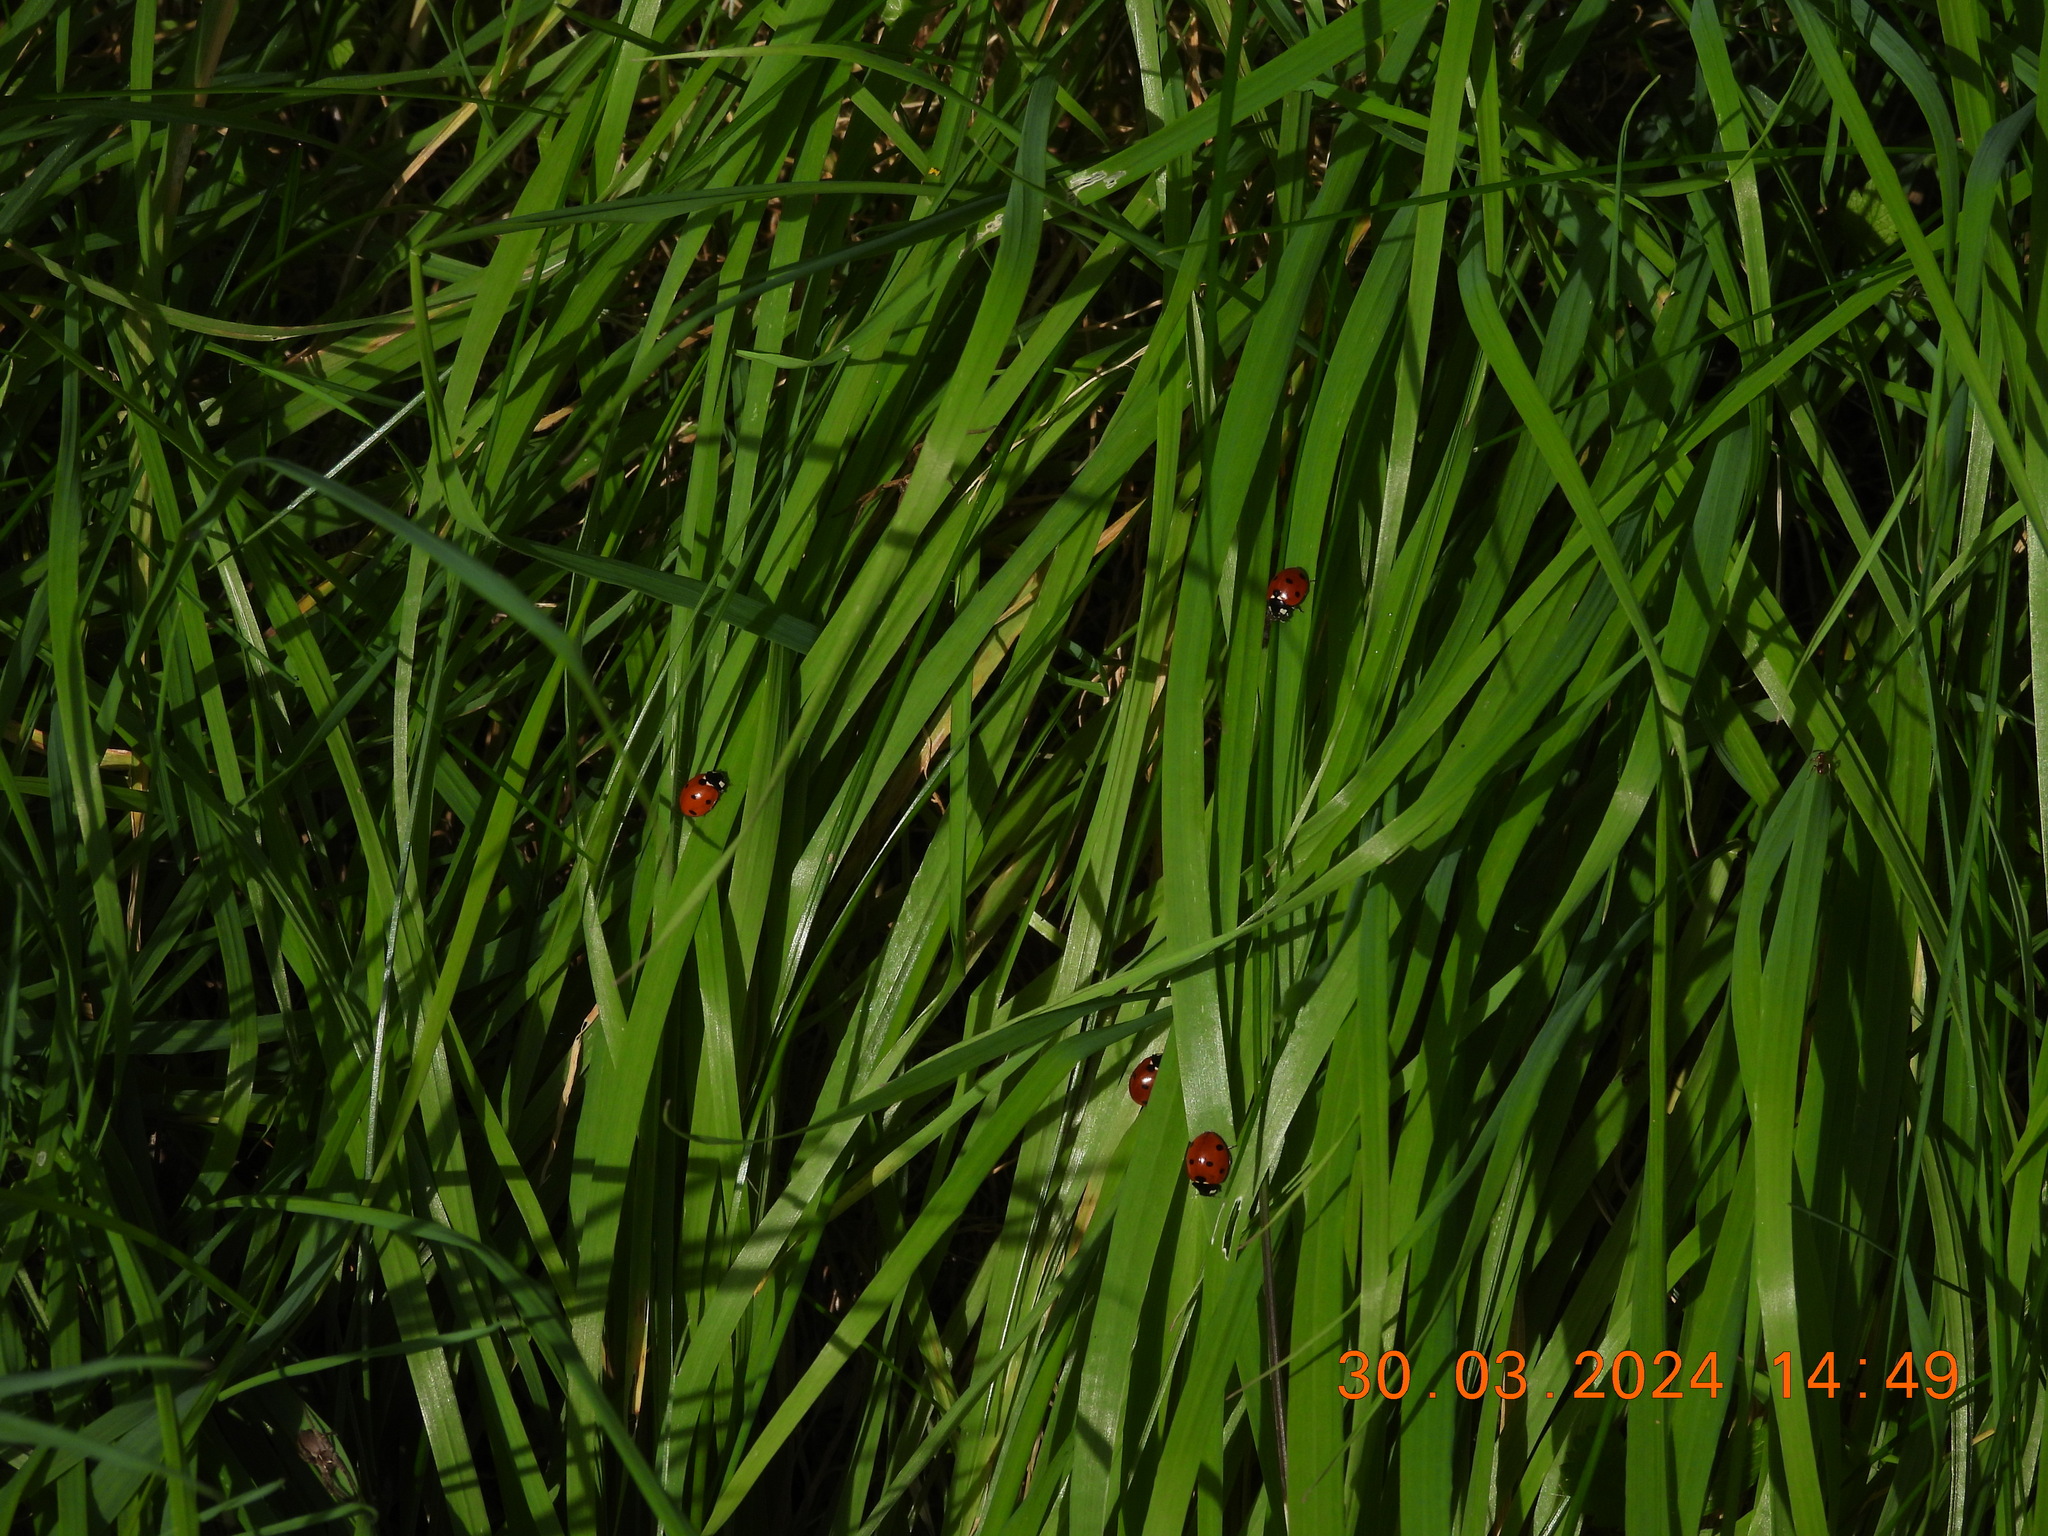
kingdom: Animalia
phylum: Arthropoda
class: Insecta
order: Coleoptera
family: Coccinellidae
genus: Coccinella
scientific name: Coccinella septempunctata
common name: Sevenspotted lady beetle
